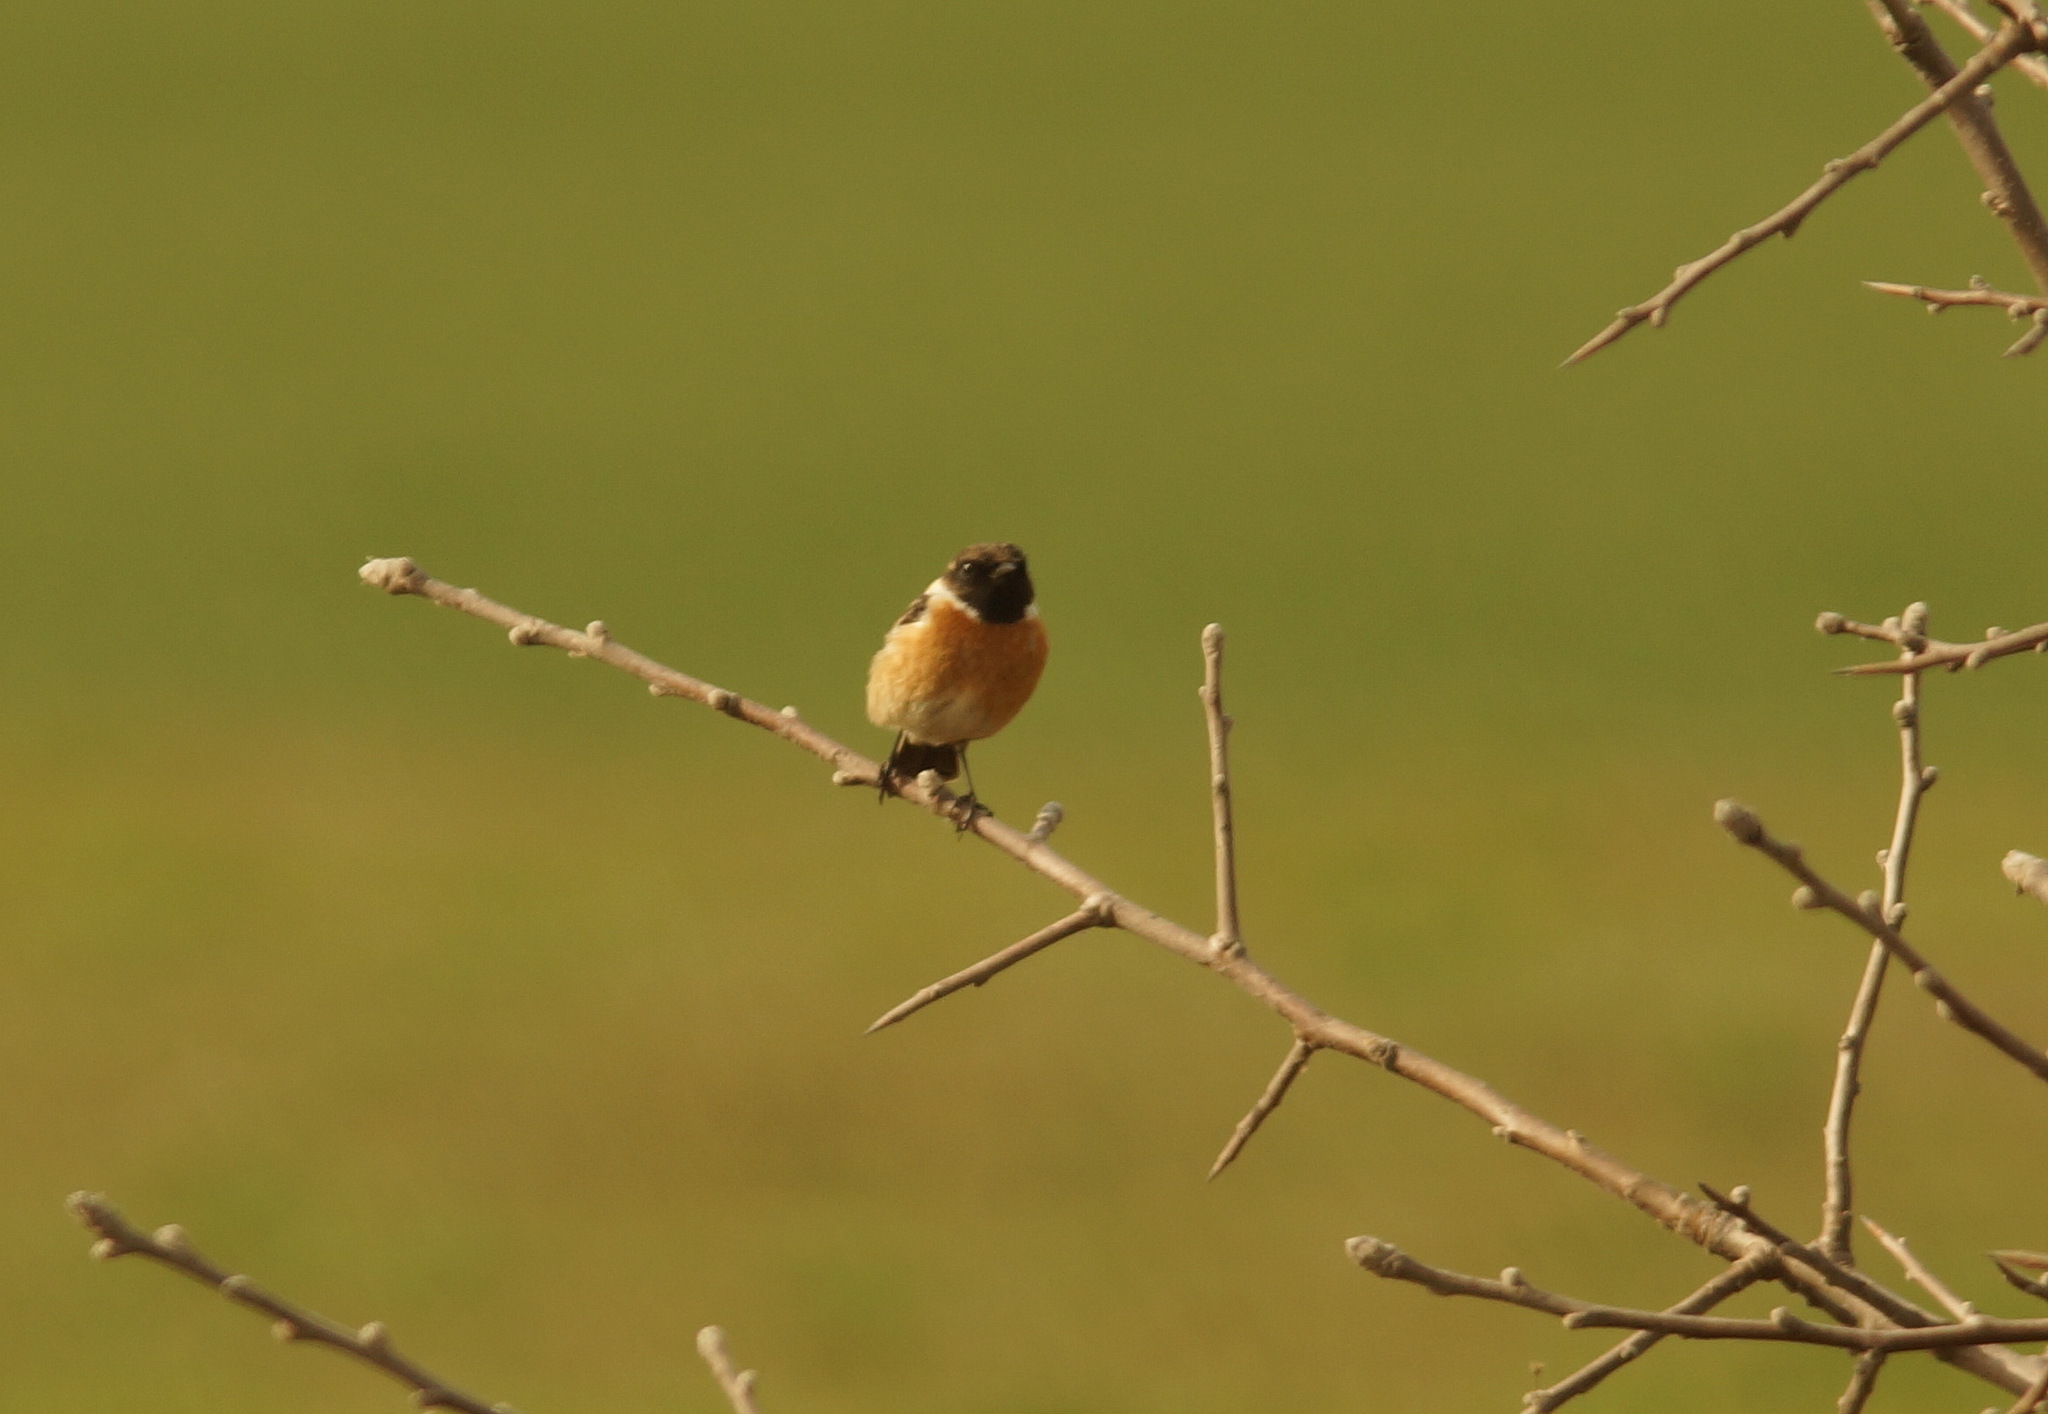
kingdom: Animalia
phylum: Chordata
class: Aves
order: Passeriformes
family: Muscicapidae
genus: Saxicola
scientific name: Saxicola rubicola
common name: European stonechat
